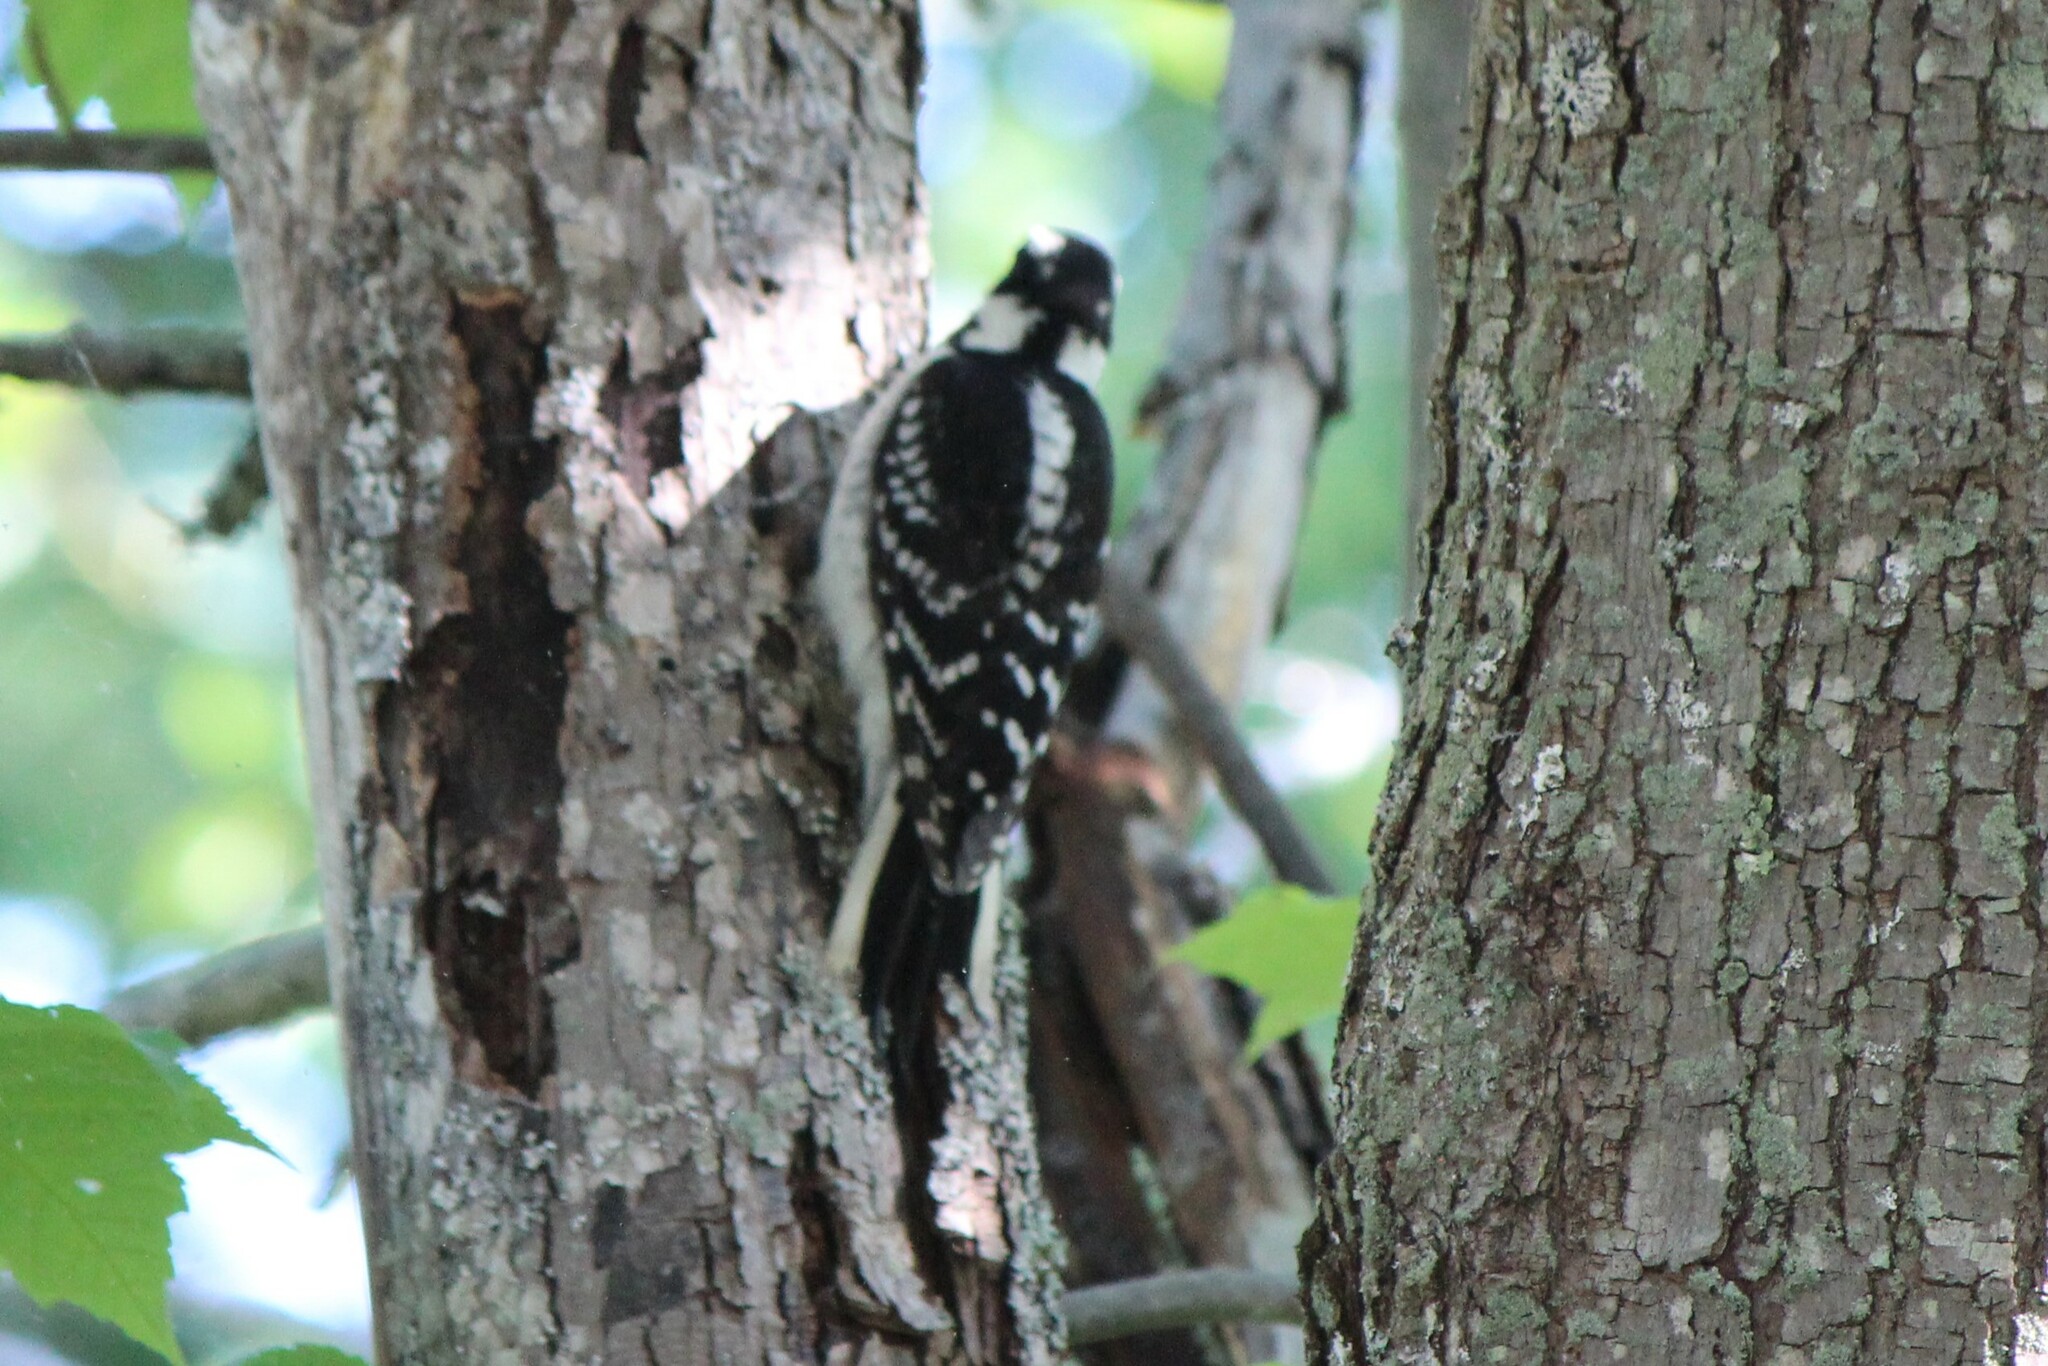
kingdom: Animalia
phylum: Chordata
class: Aves
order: Piciformes
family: Picidae
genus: Leuconotopicus
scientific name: Leuconotopicus villosus
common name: Hairy woodpecker
